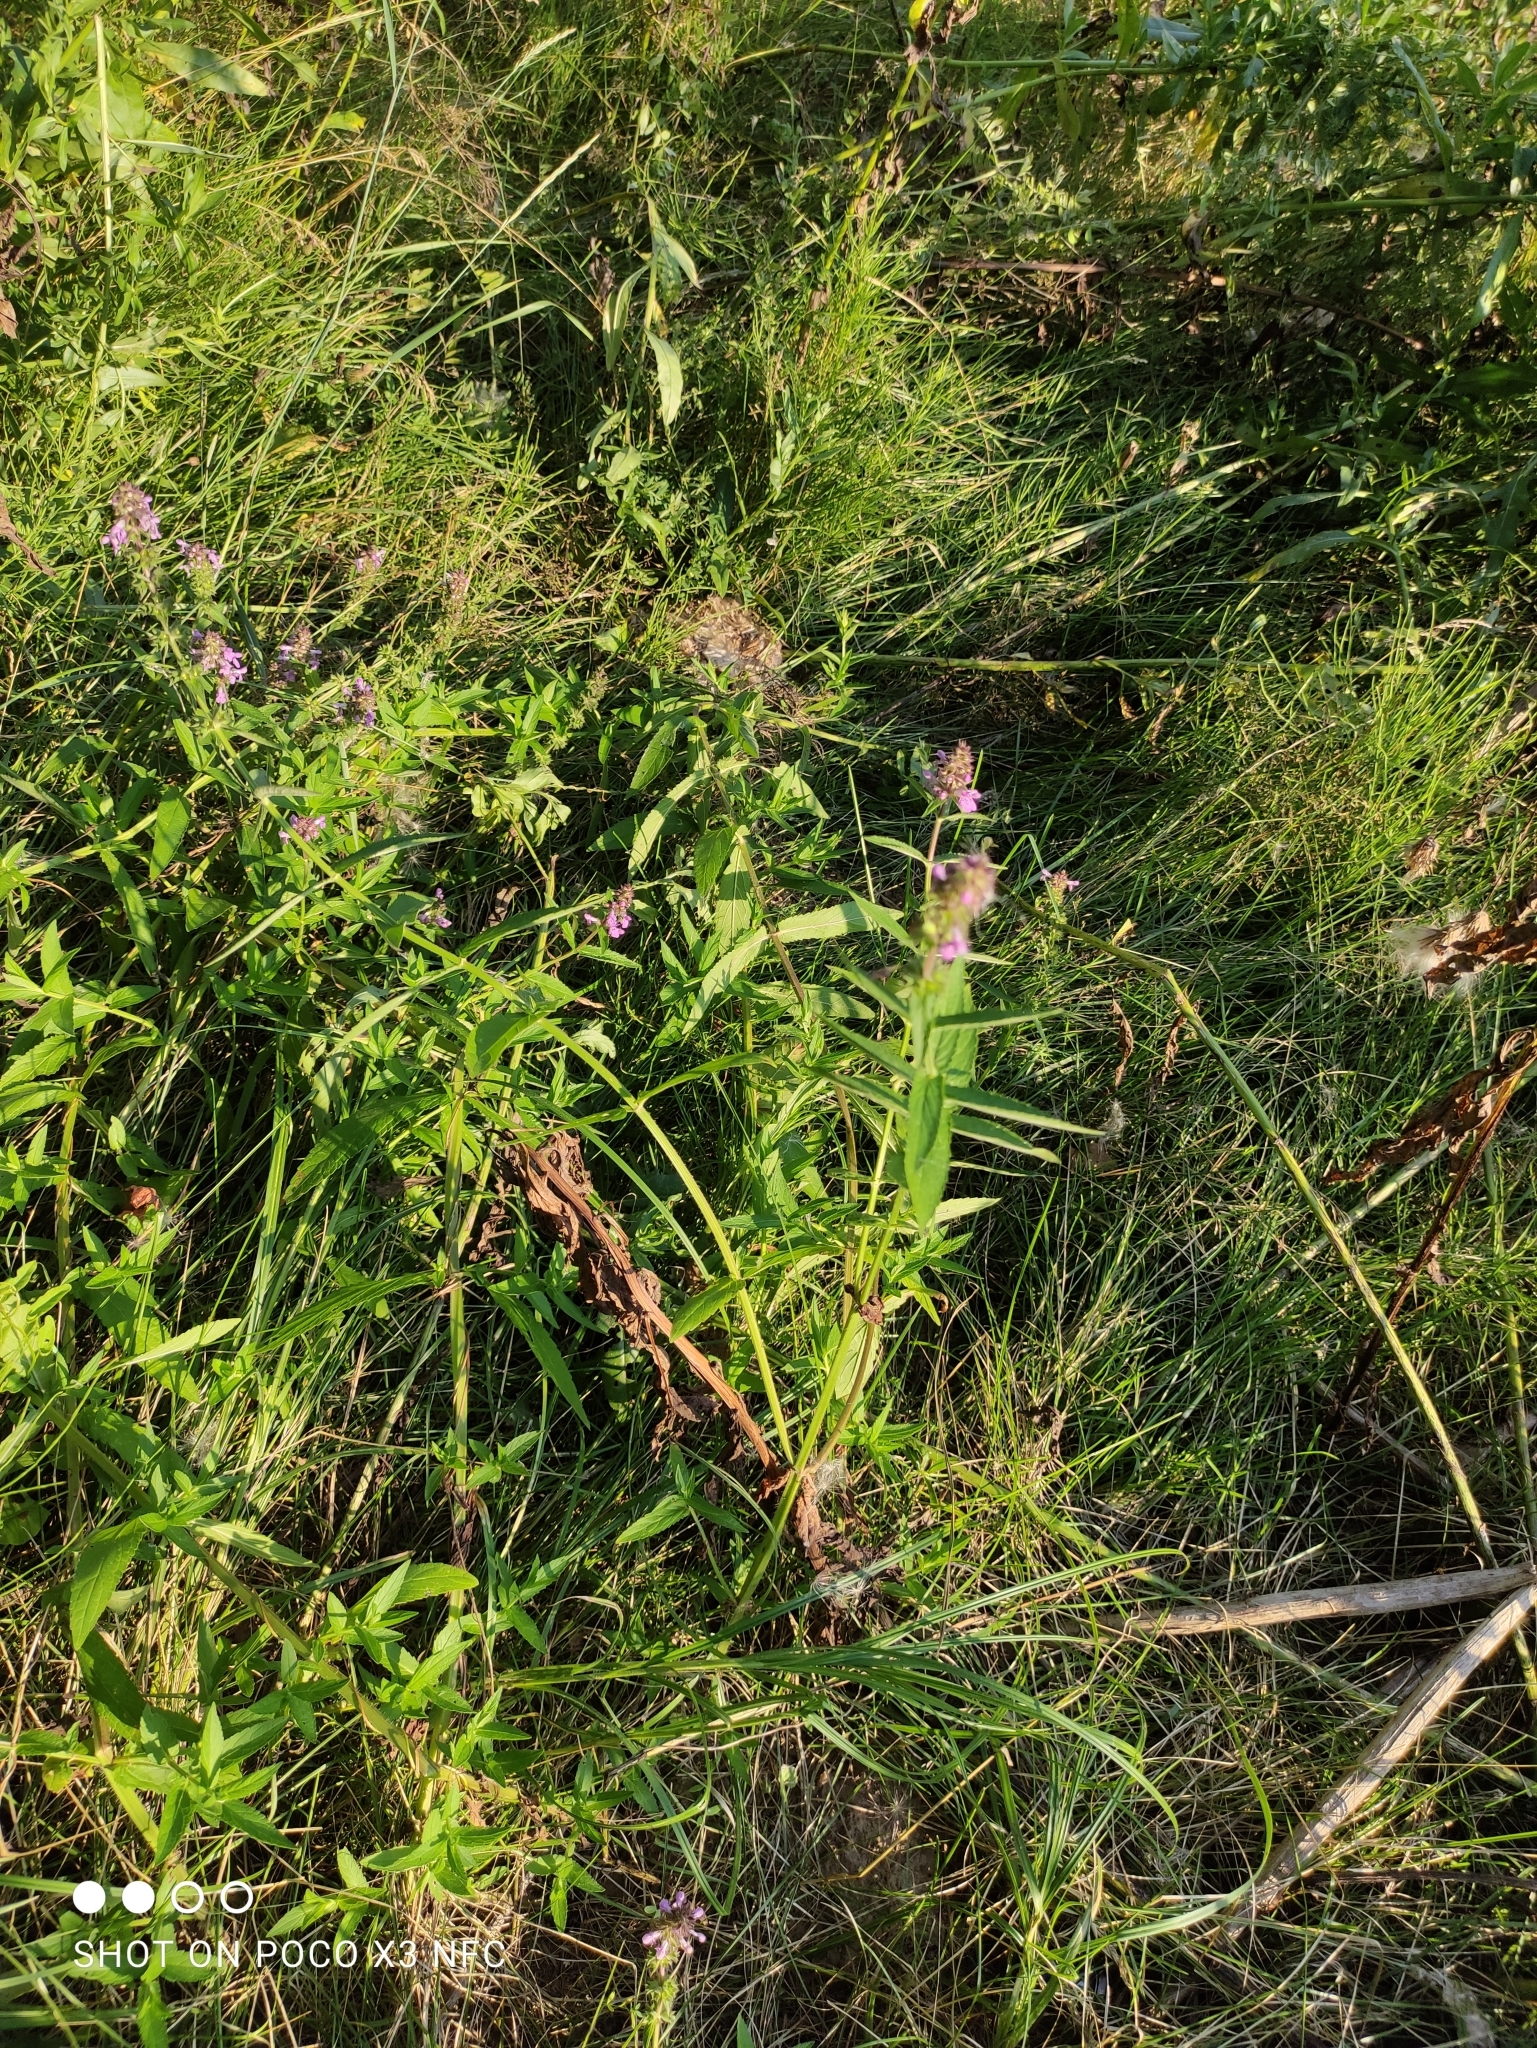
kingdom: Plantae
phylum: Tracheophyta
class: Magnoliopsida
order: Lamiales
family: Lamiaceae
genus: Stachys
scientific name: Stachys palustris
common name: Marsh woundwort
